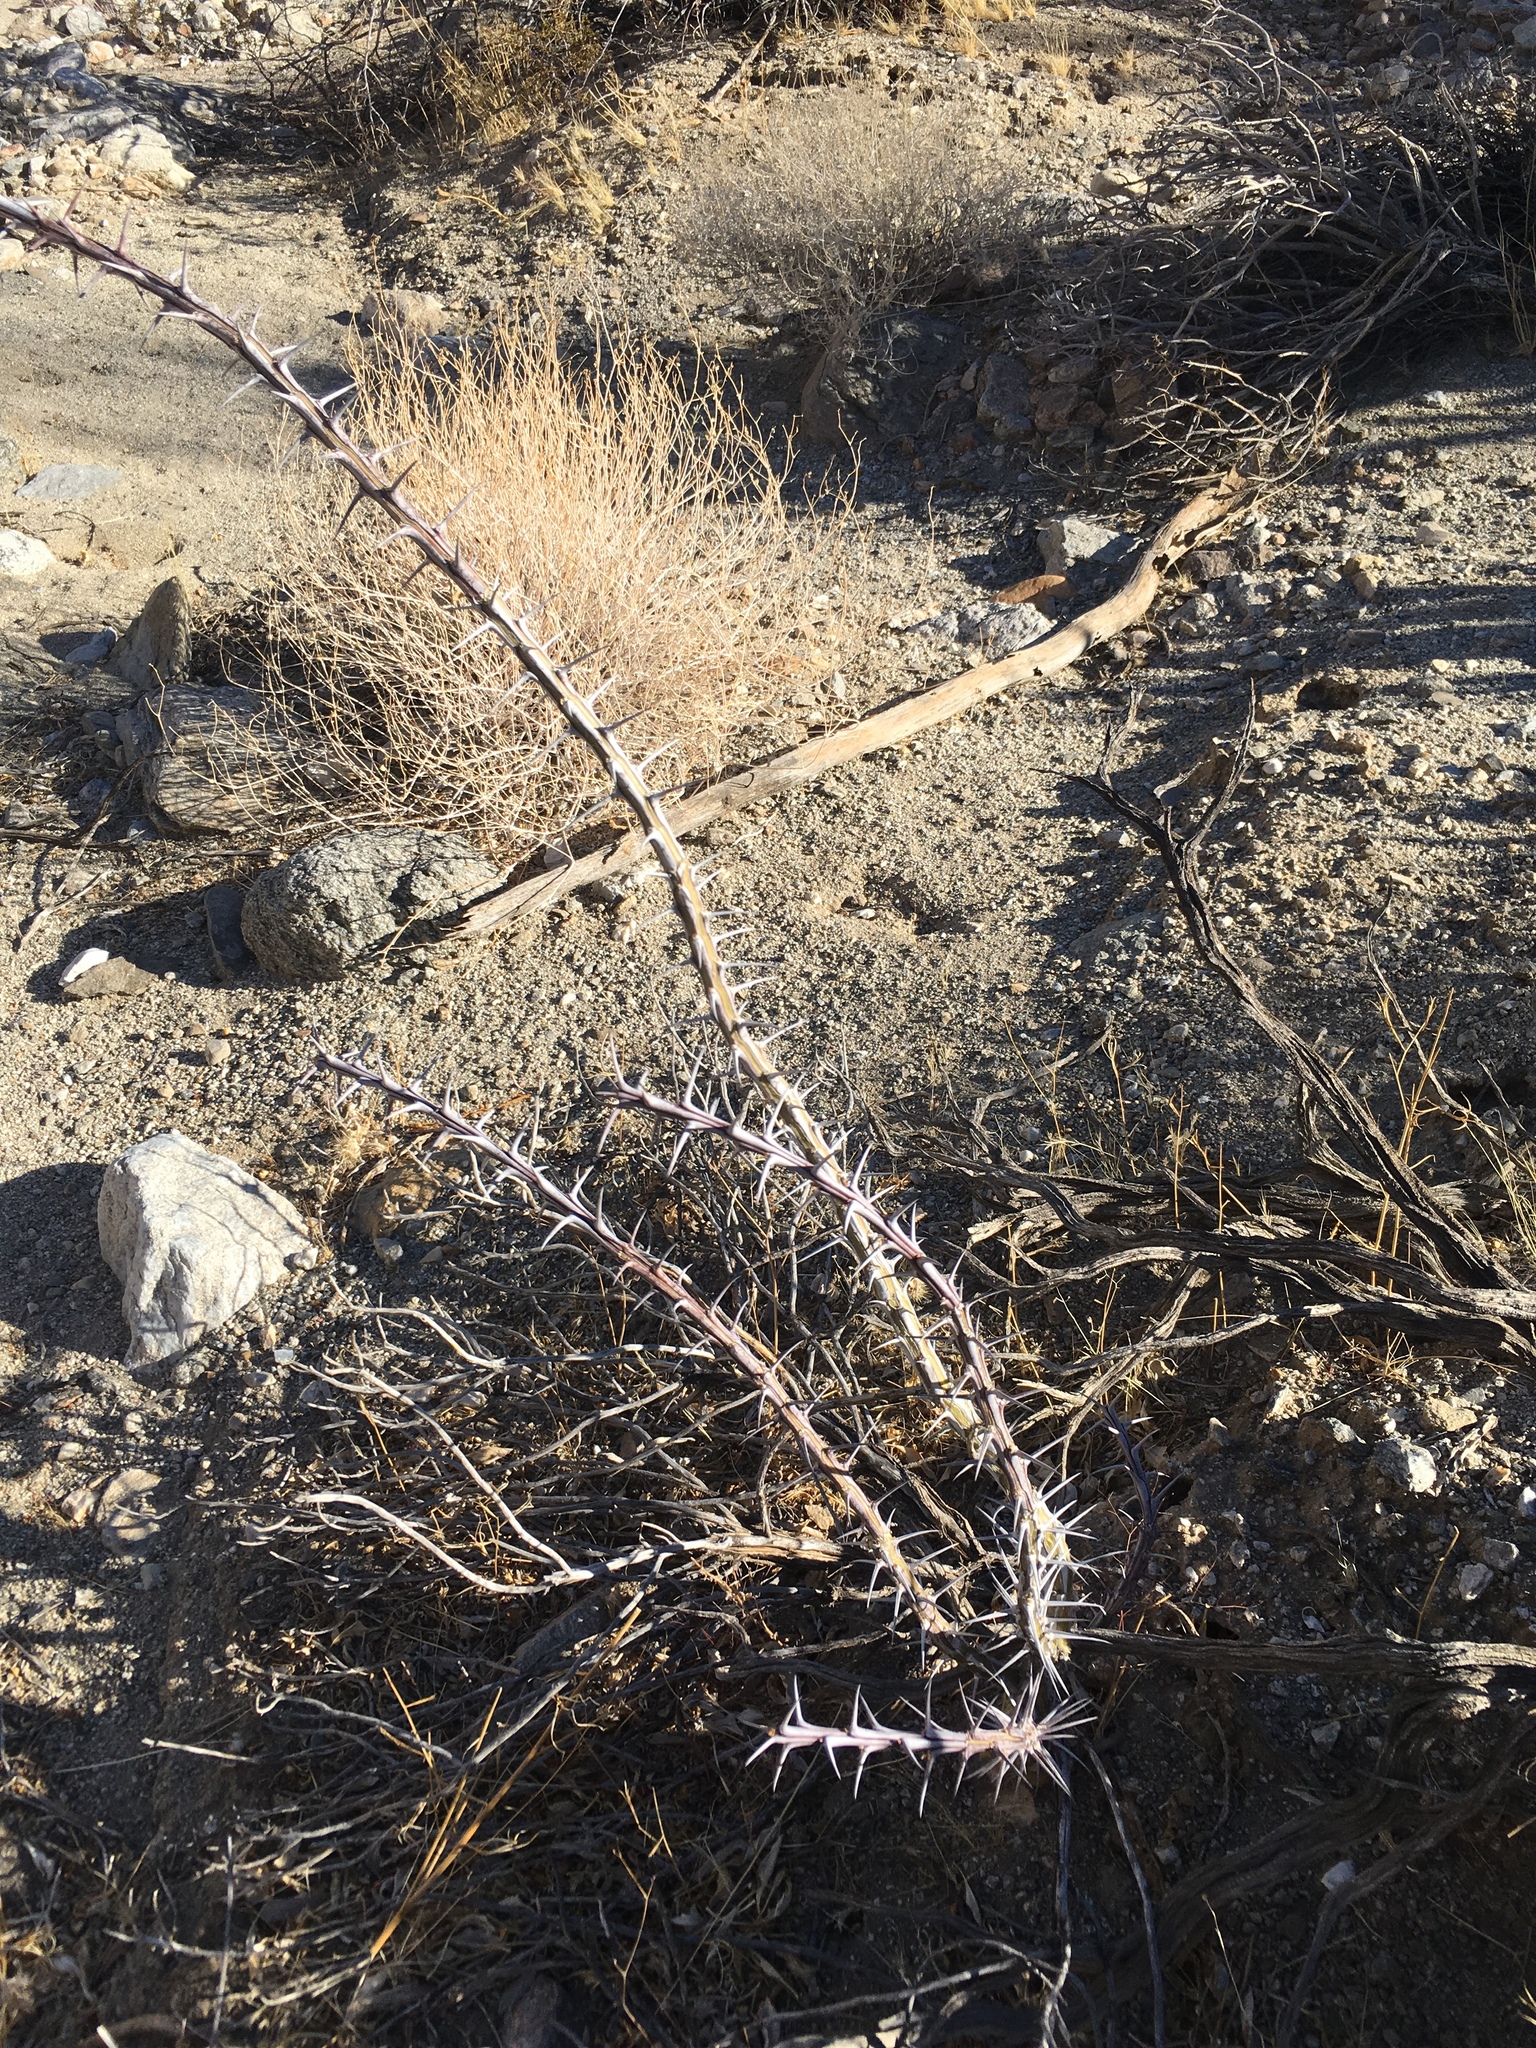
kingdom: Plantae
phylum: Tracheophyta
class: Magnoliopsida
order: Ericales
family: Fouquieriaceae
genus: Fouquieria
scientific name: Fouquieria splendens
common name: Vine-cactus
